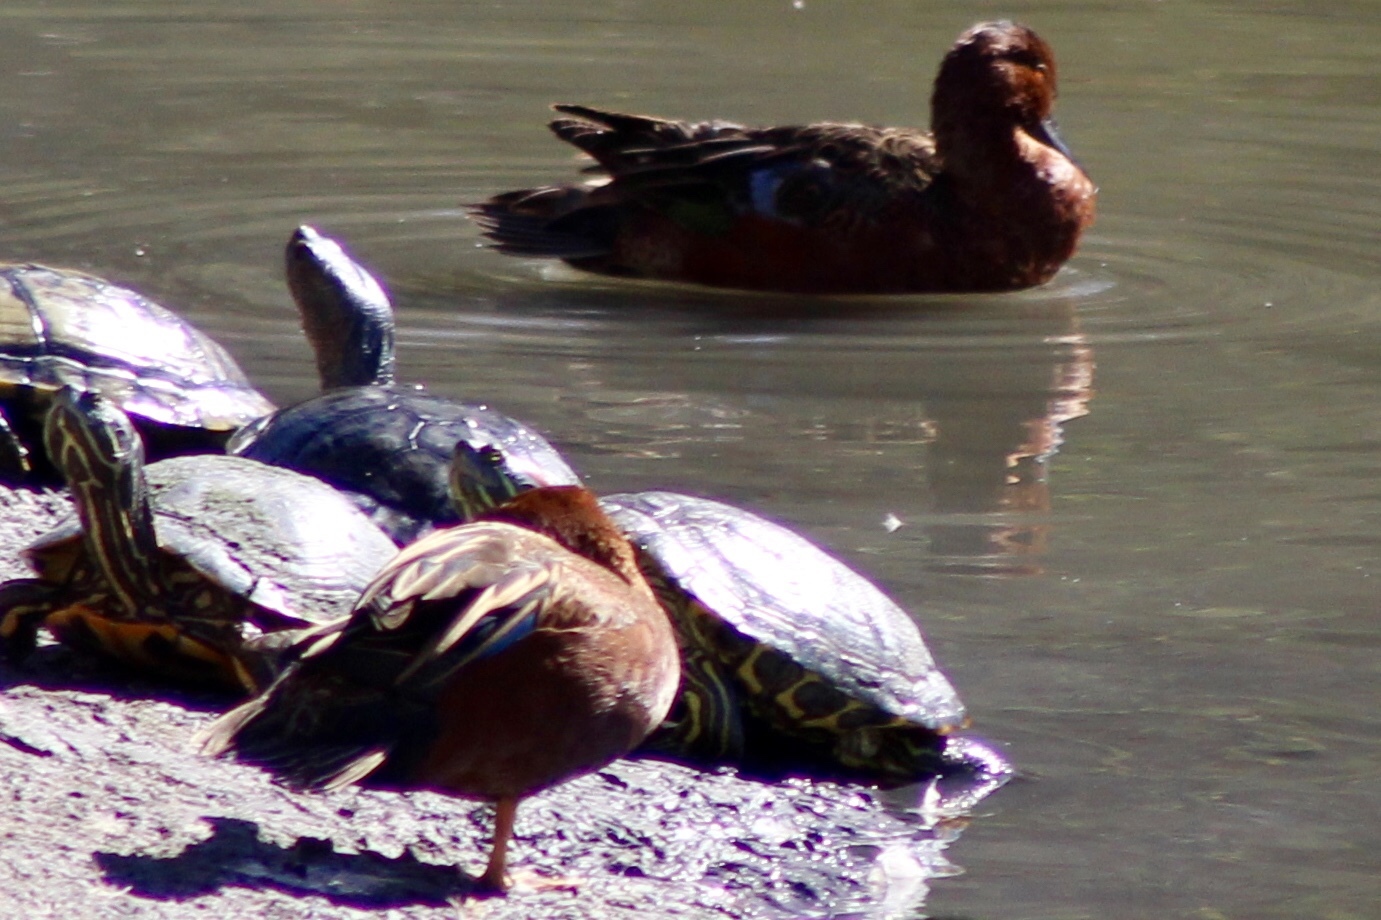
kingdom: Animalia
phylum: Chordata
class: Aves
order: Anseriformes
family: Anatidae
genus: Spatula
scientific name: Spatula cyanoptera
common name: Cinnamon teal
